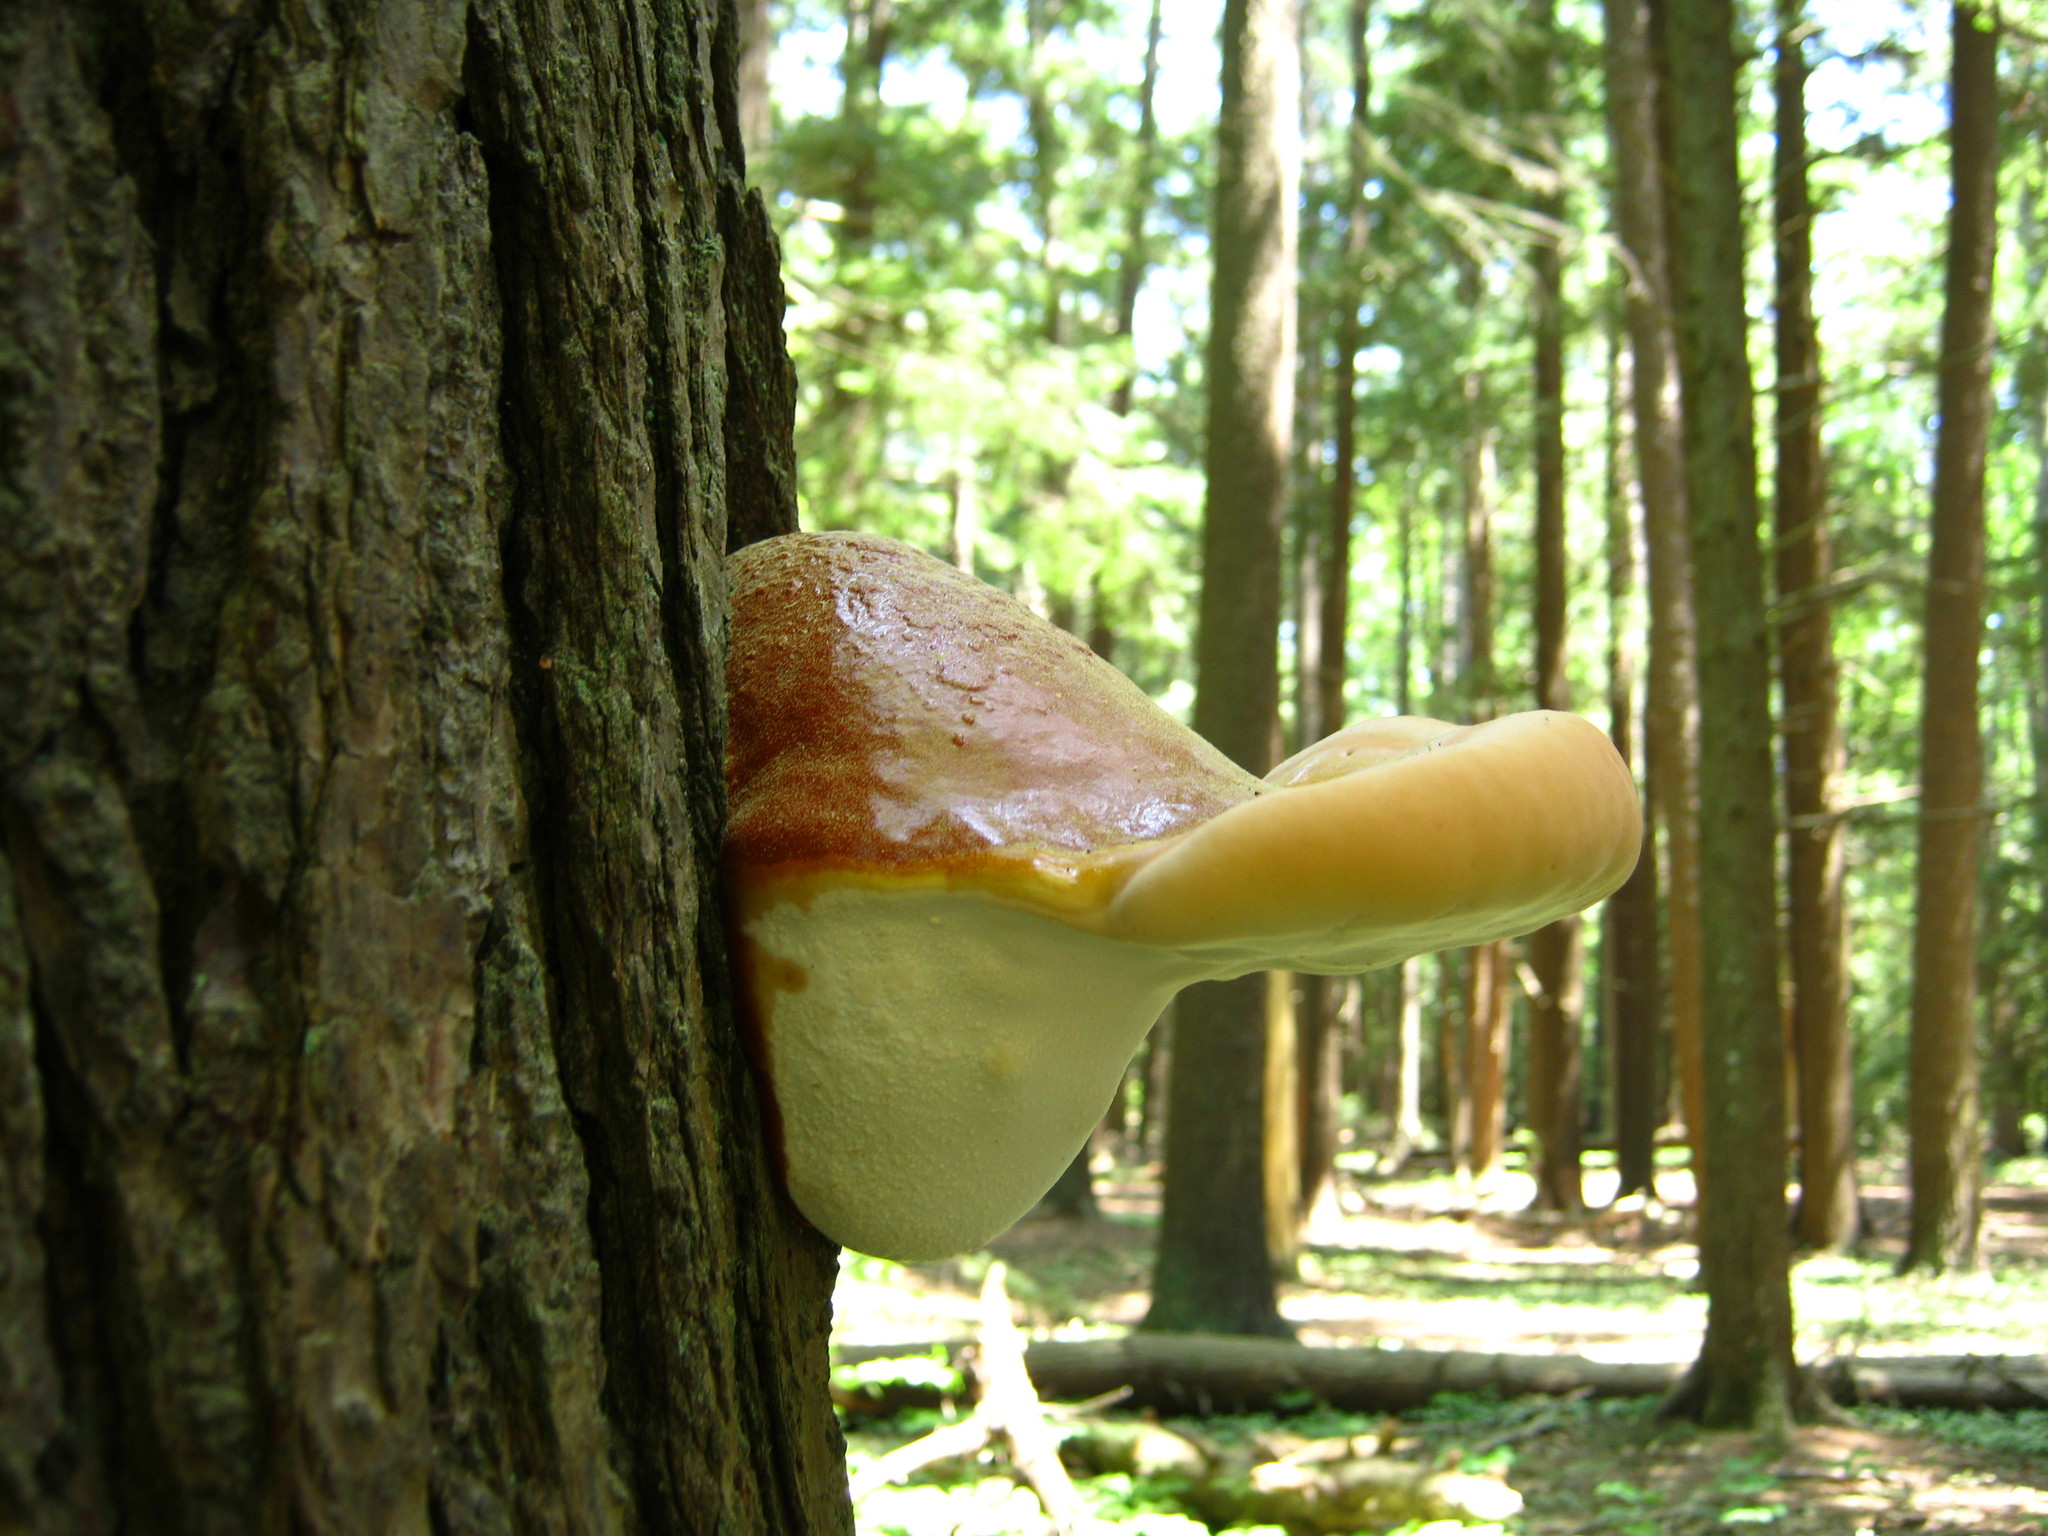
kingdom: Fungi
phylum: Basidiomycota
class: Agaricomycetes
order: Polyporales
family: Polyporaceae
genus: Ganoderma
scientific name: Ganoderma tsugae
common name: Hemlock varnish shelf
